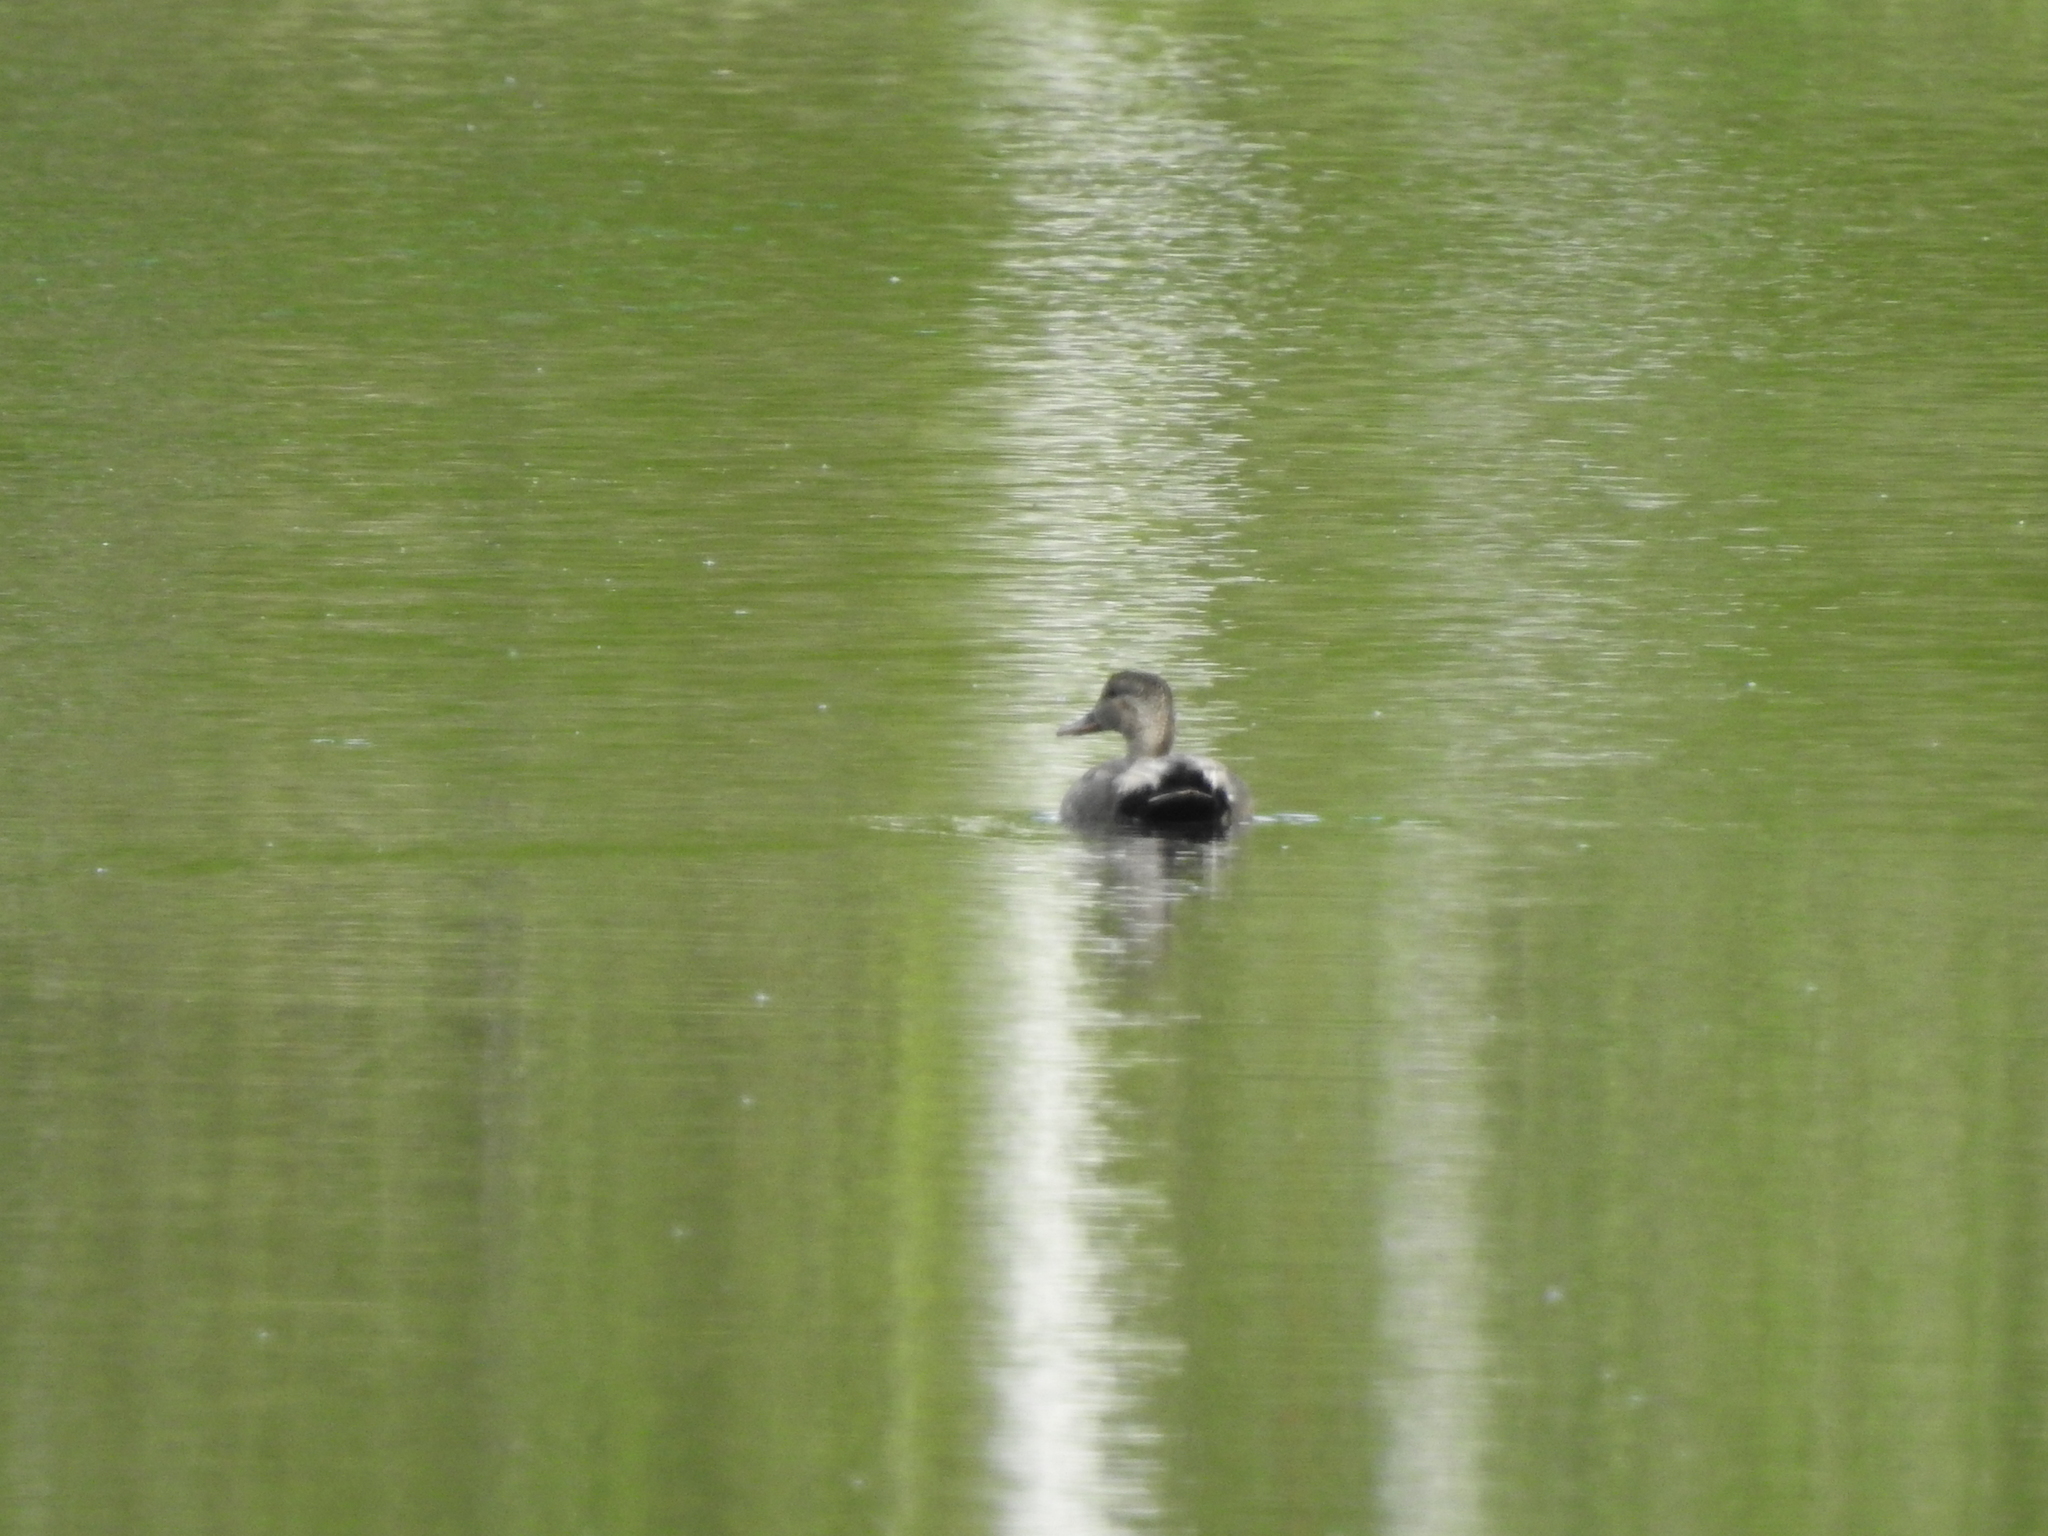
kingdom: Animalia
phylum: Chordata
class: Aves
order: Anseriformes
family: Anatidae
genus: Mareca
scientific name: Mareca strepera
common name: Gadwall
